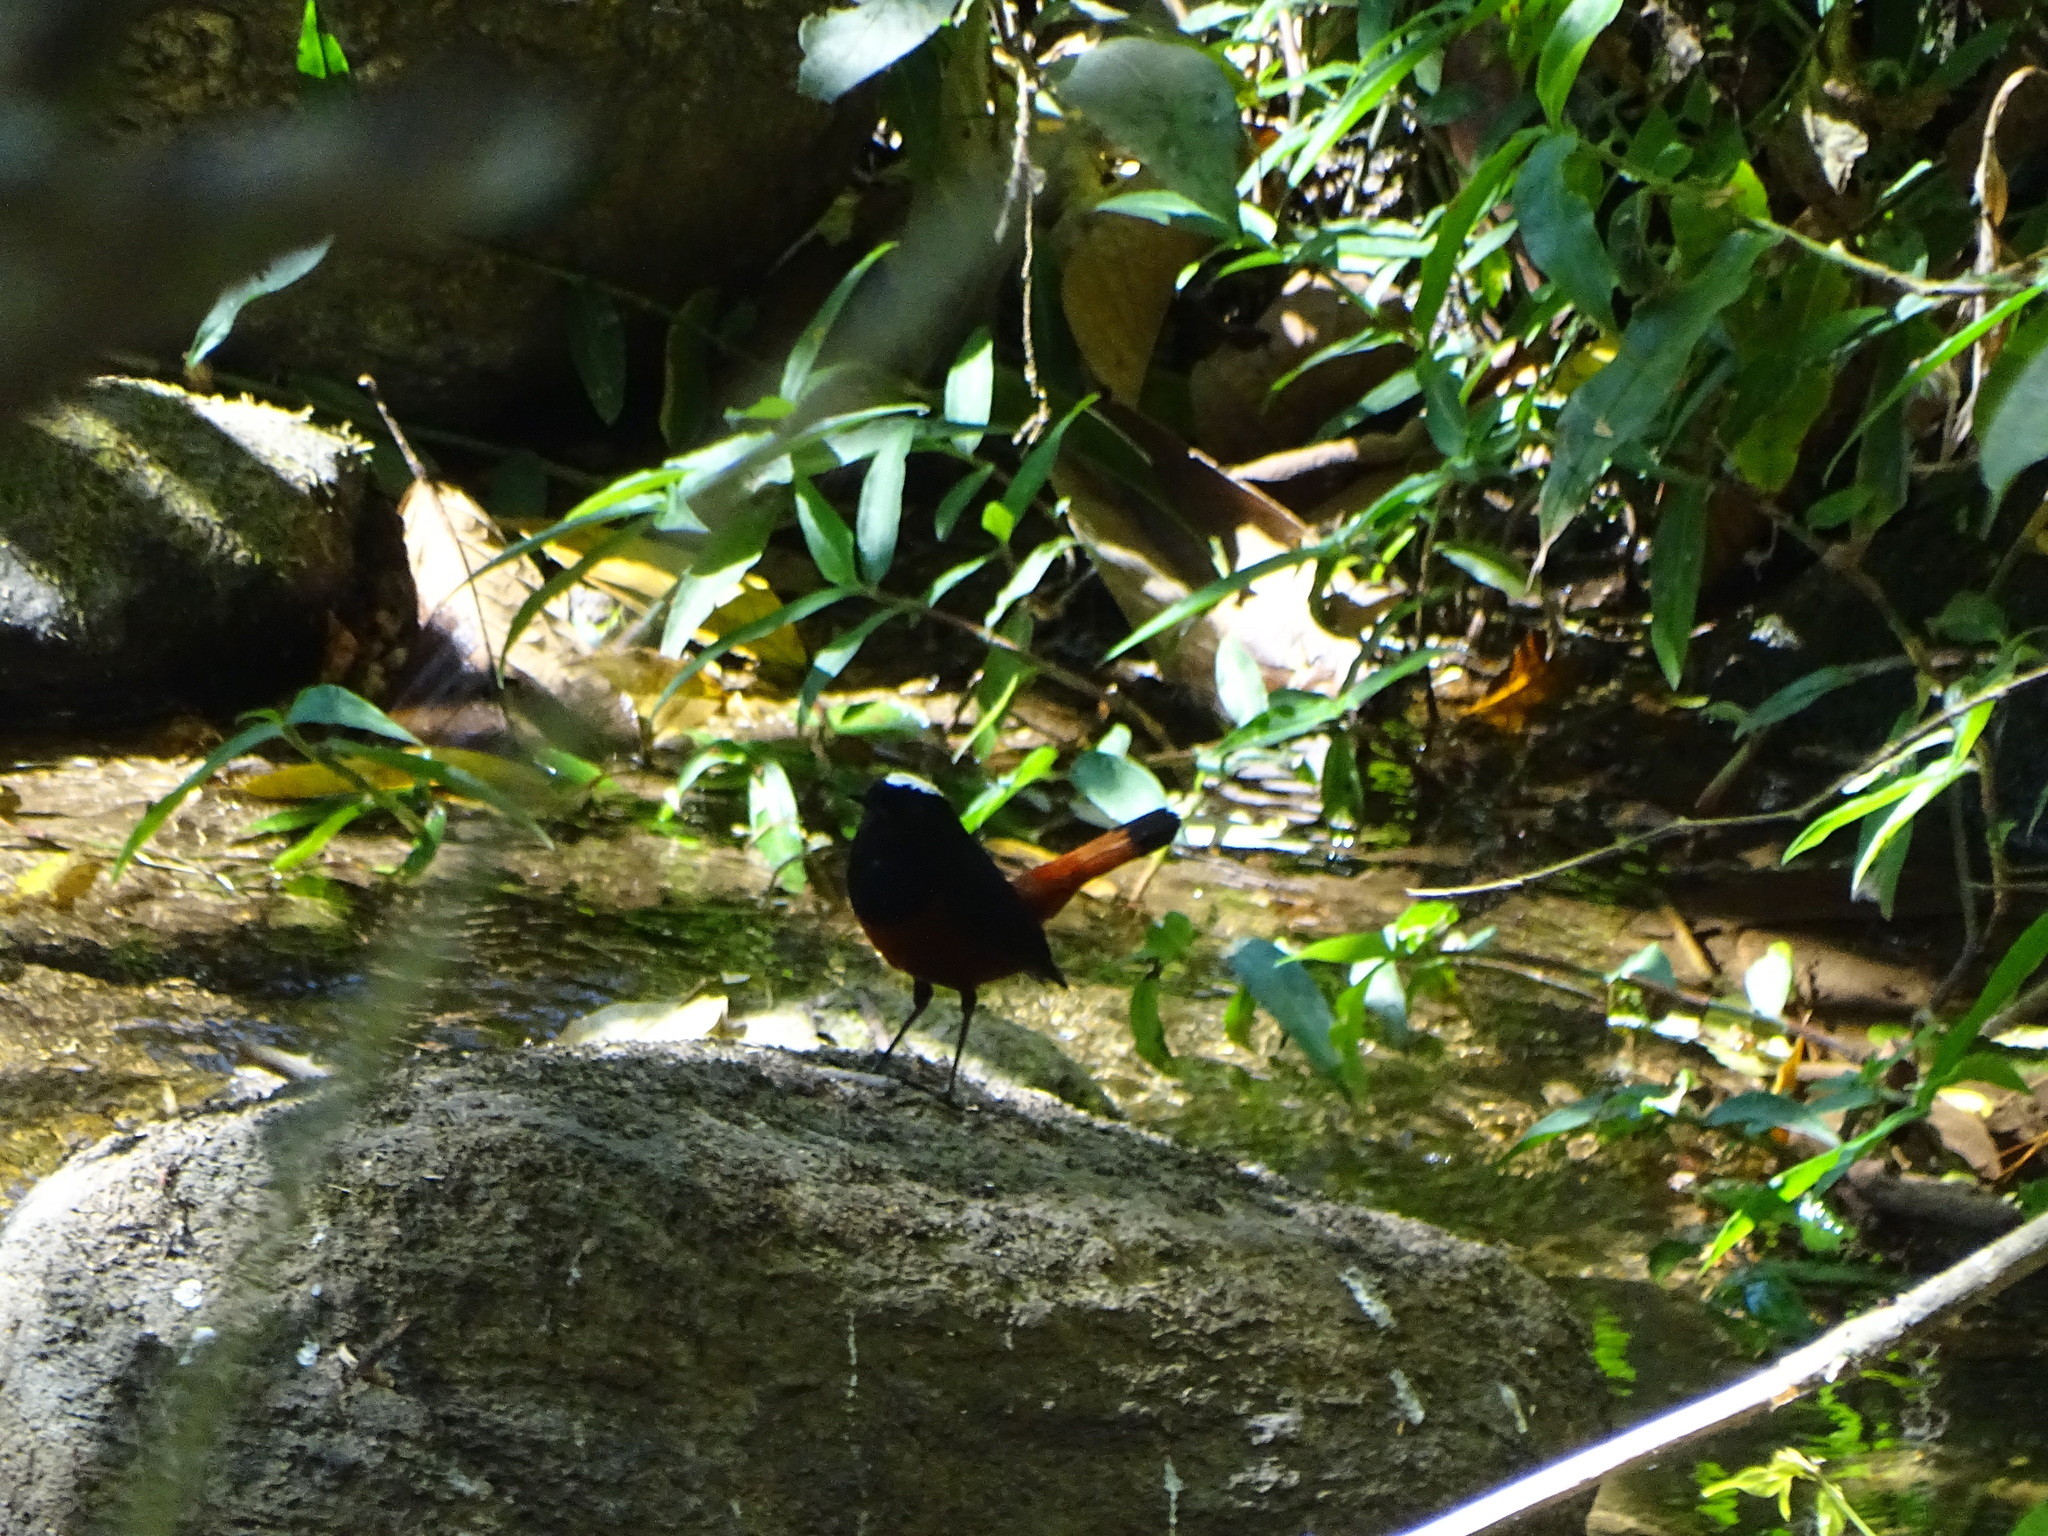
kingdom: Animalia
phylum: Chordata
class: Aves
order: Passeriformes
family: Muscicapidae
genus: Chaimarrornis
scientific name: Chaimarrornis leucocephalus
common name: White-capped redstart
